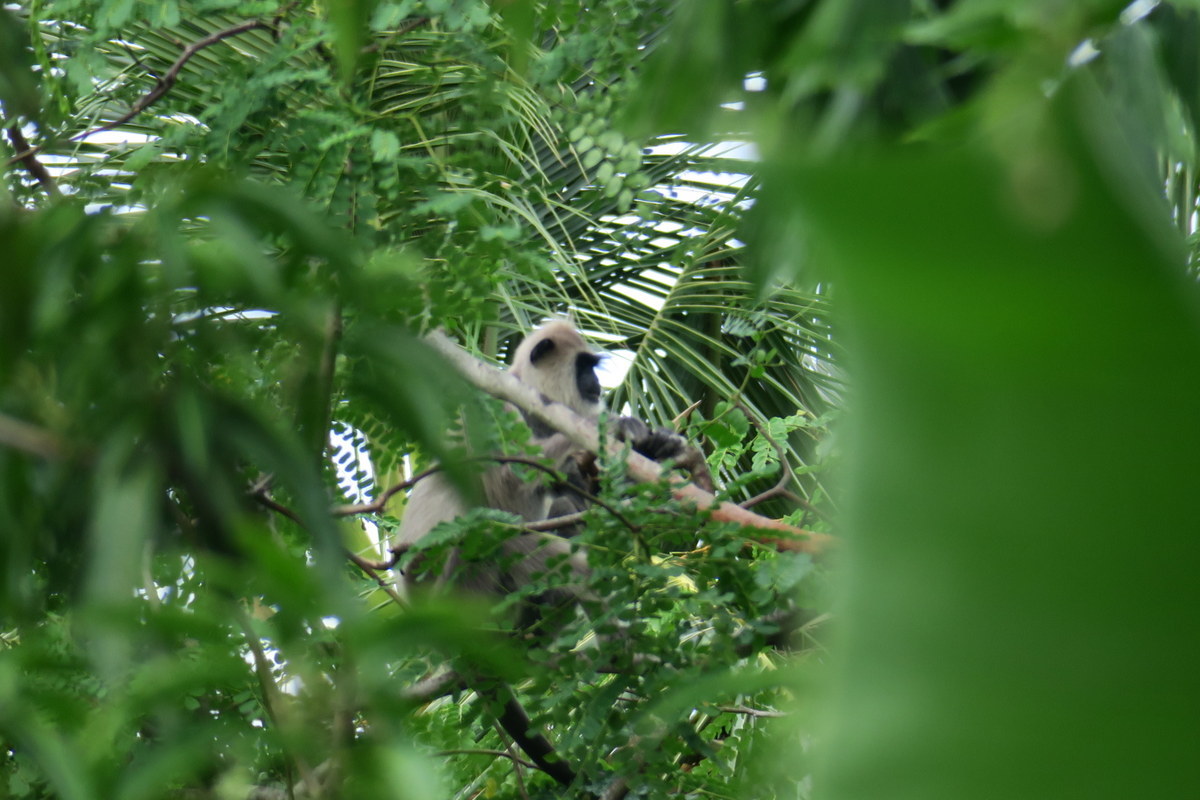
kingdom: Animalia
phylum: Chordata
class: Mammalia
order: Primates
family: Cercopithecidae
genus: Semnopithecus
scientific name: Semnopithecus priam
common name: Tufted gray langur
